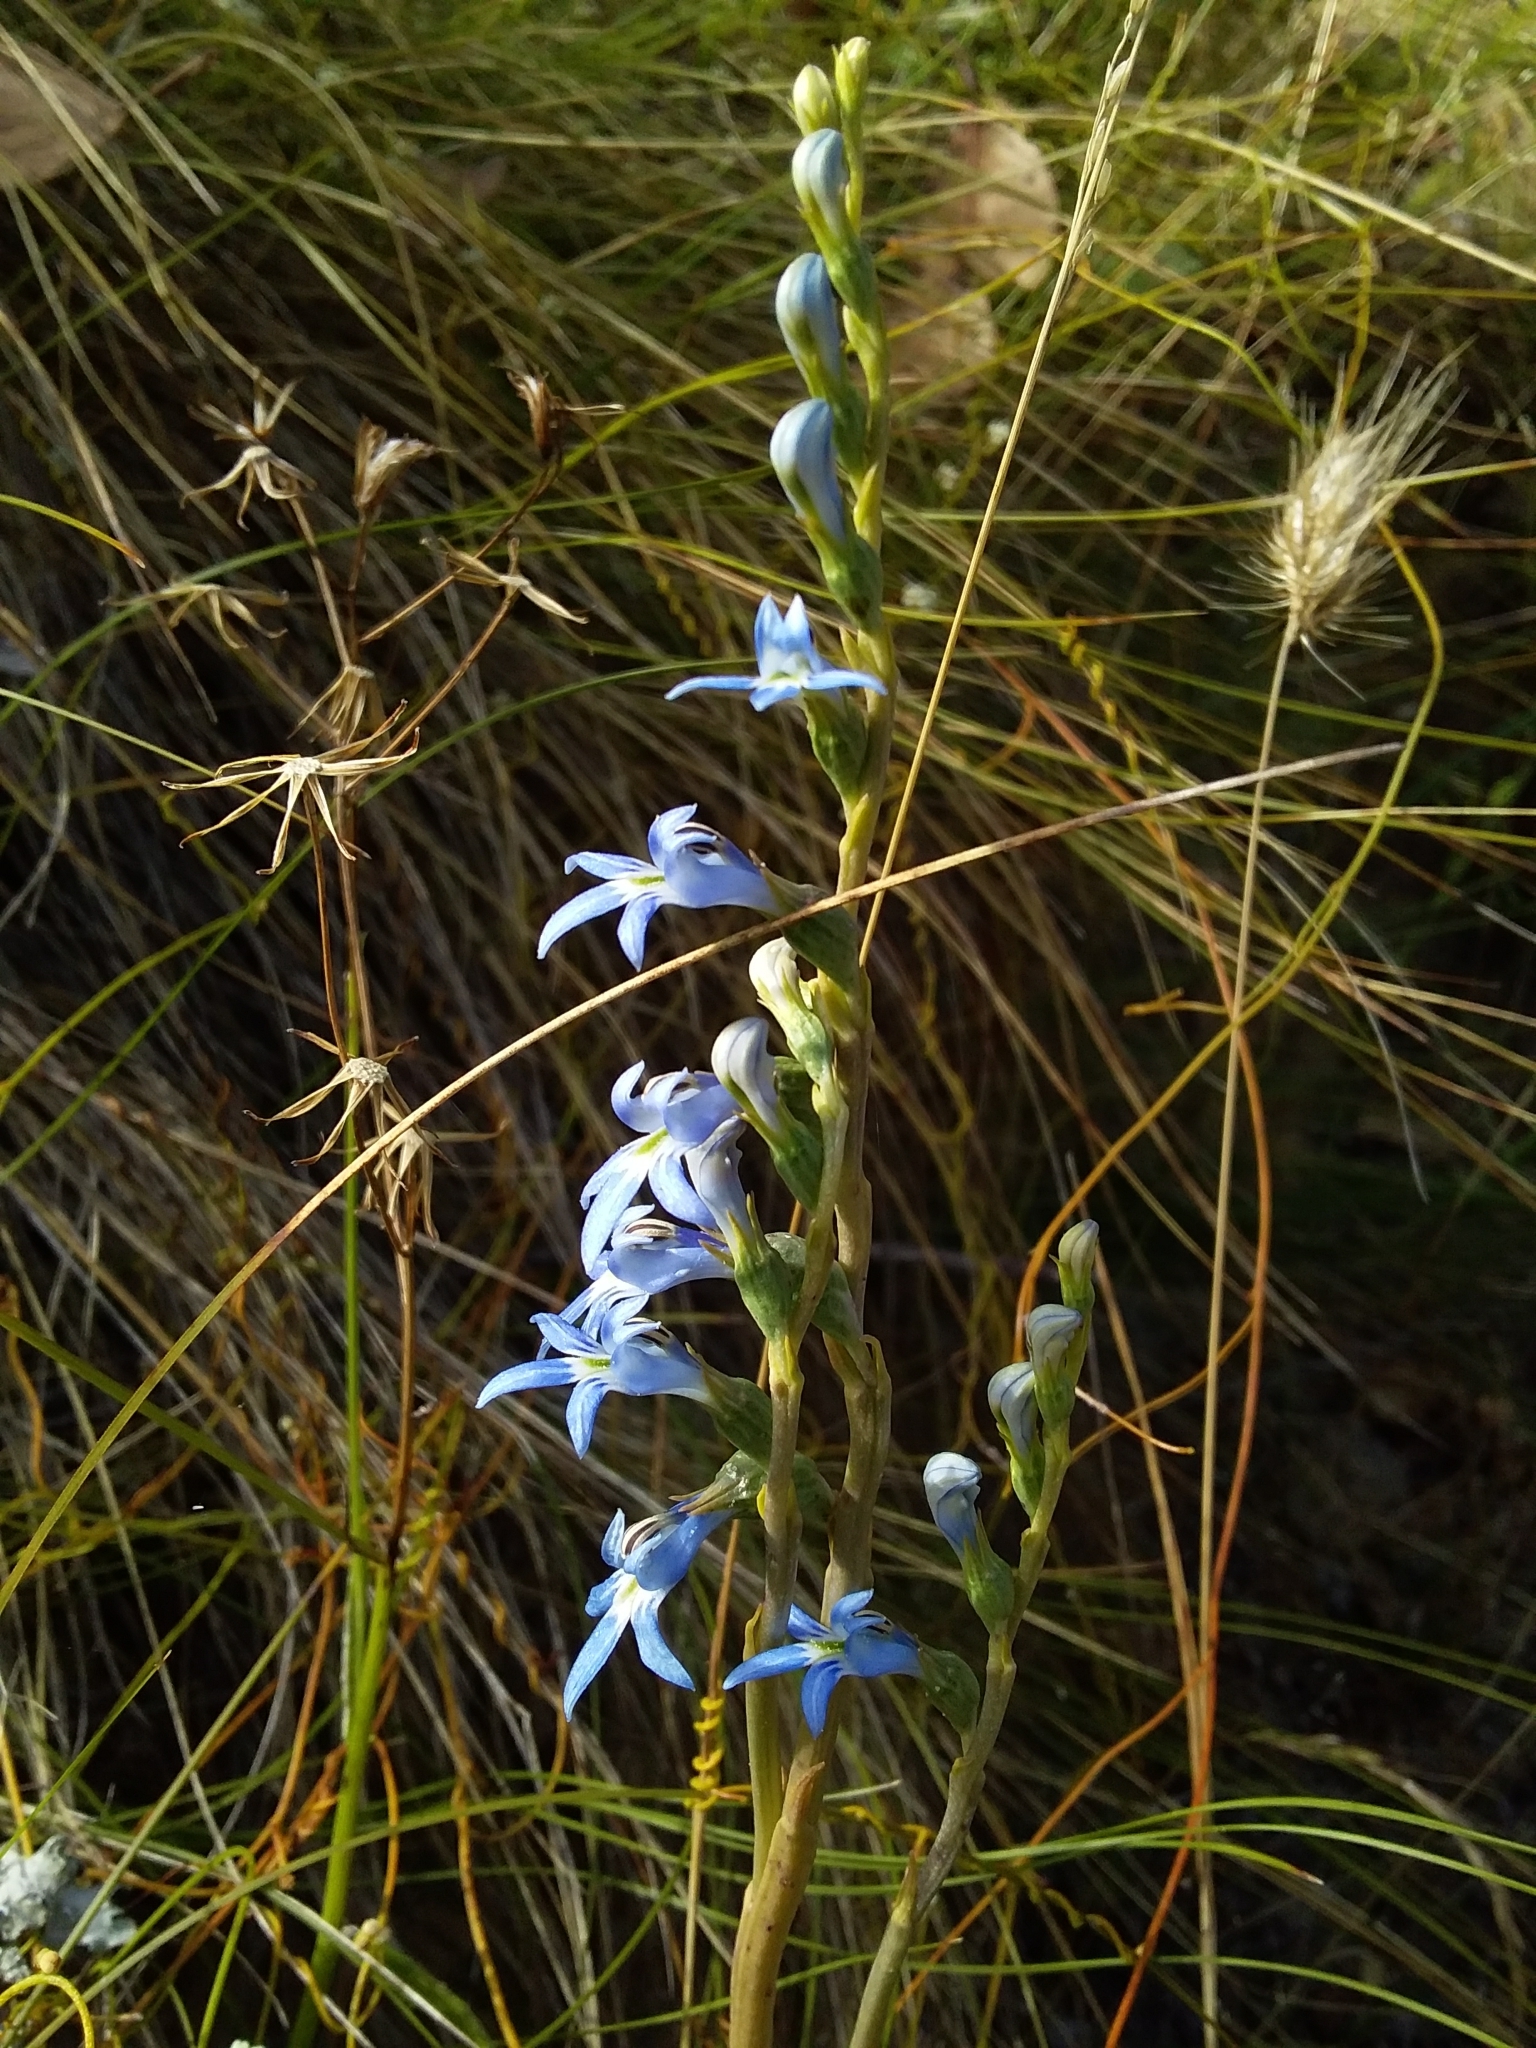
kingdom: Plantae
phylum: Tracheophyta
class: Magnoliopsida
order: Asterales
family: Campanulaceae
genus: Lobelia
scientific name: Lobelia gibbosa
